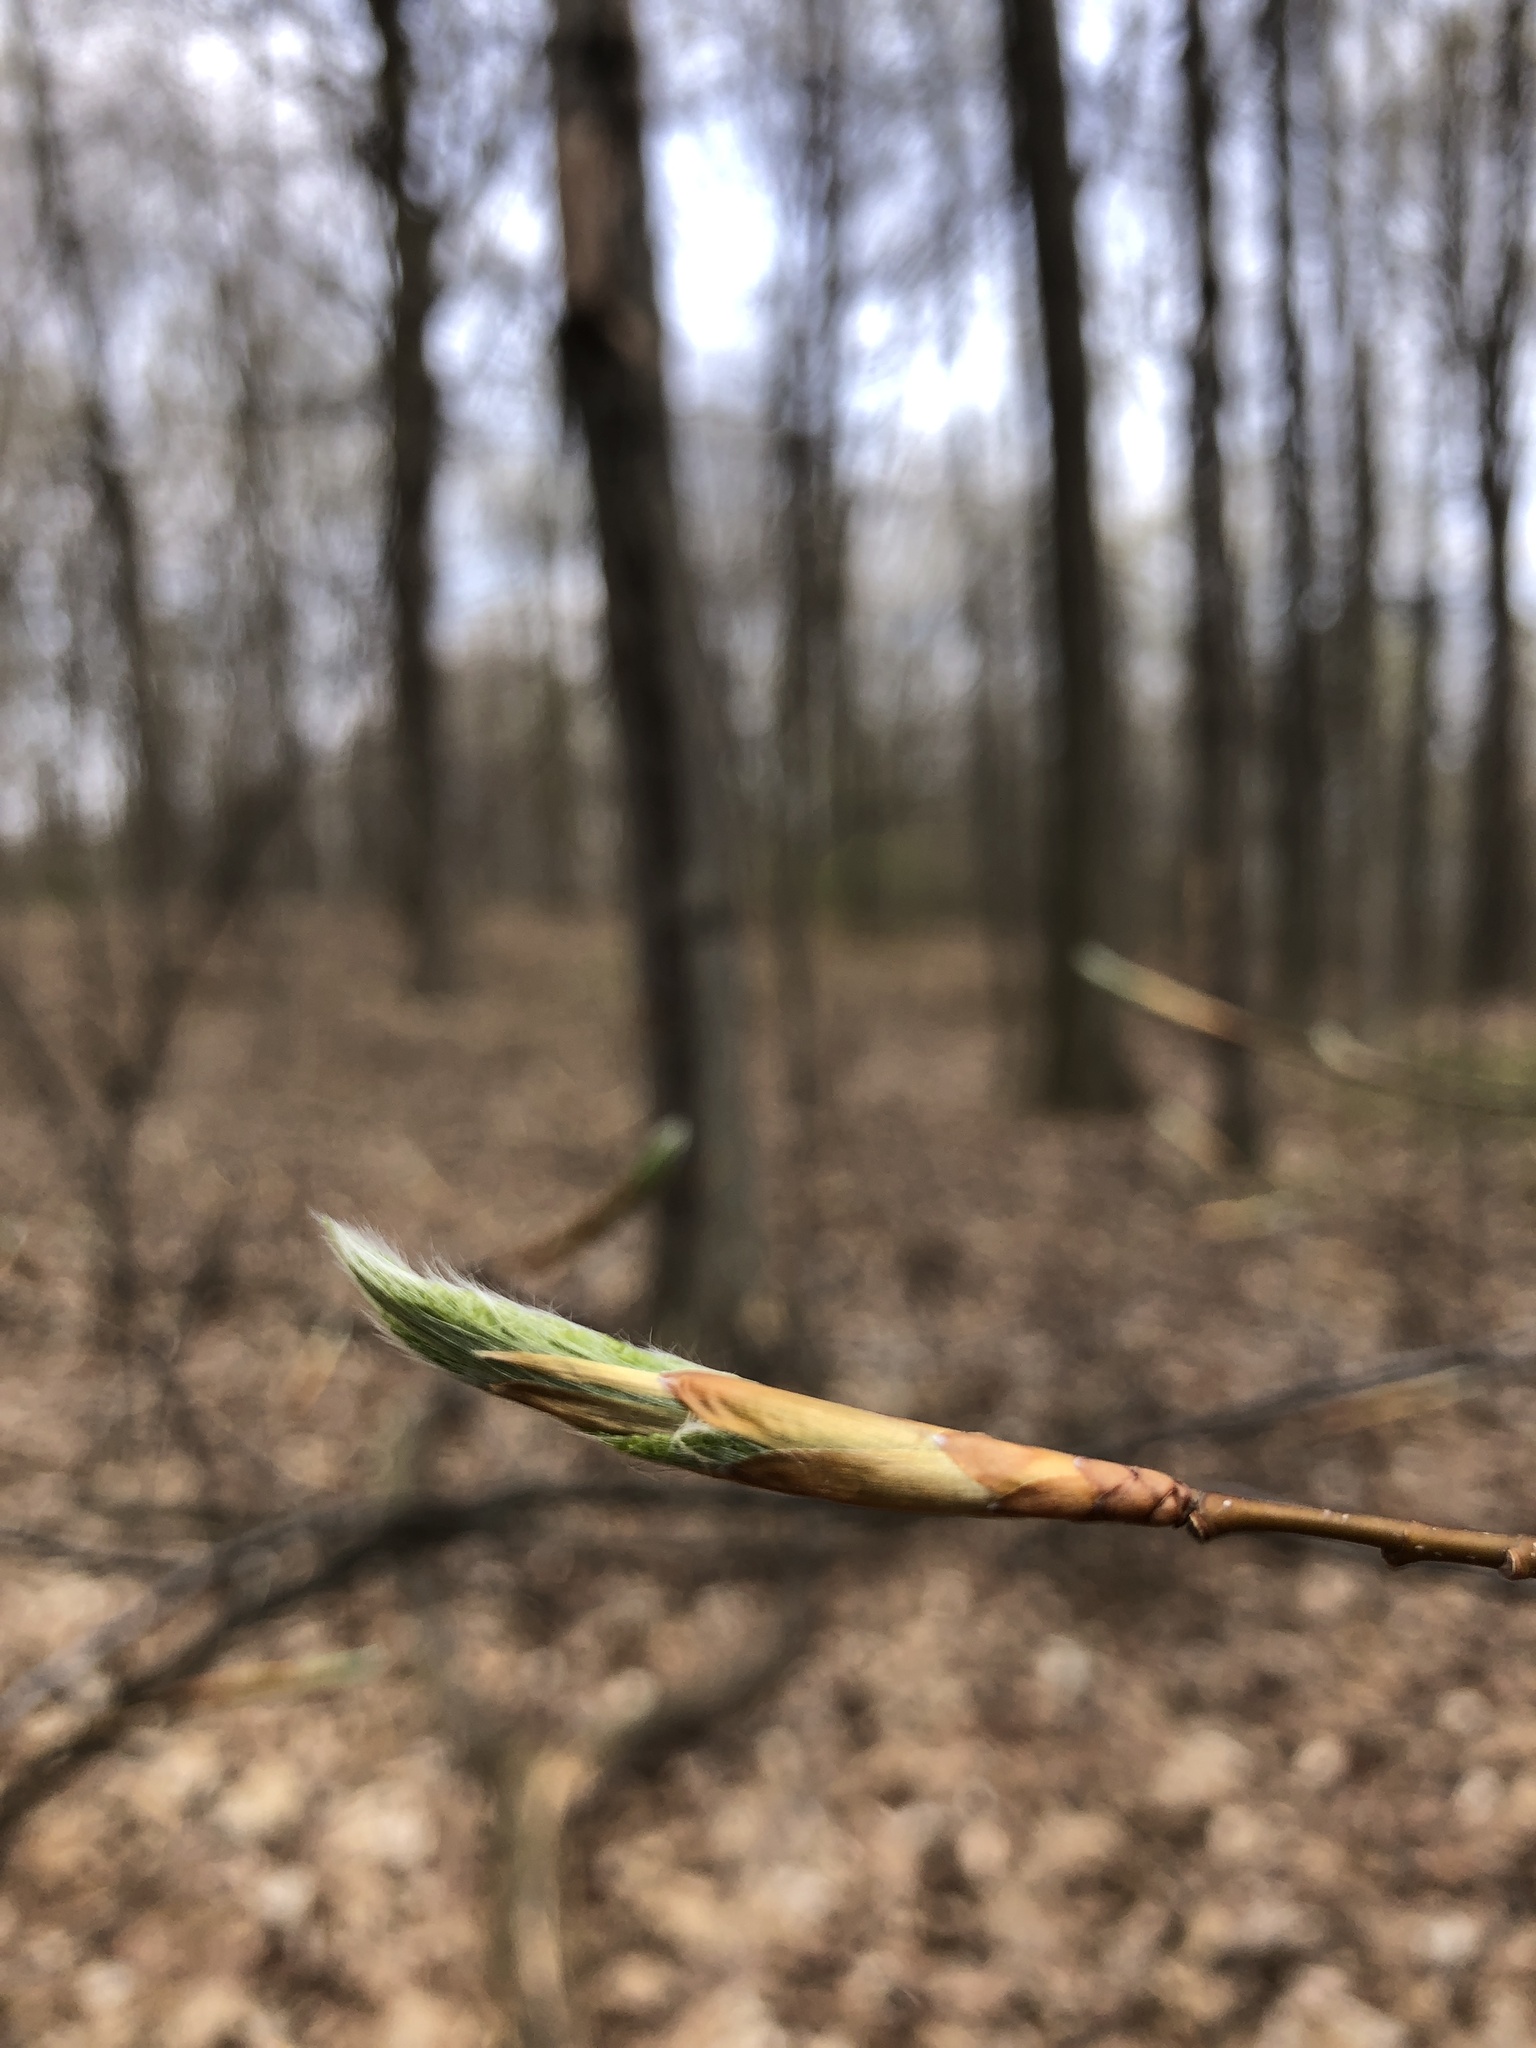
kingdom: Plantae
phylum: Tracheophyta
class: Magnoliopsida
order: Fagales
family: Fagaceae
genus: Fagus
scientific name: Fagus grandifolia
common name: American beech
